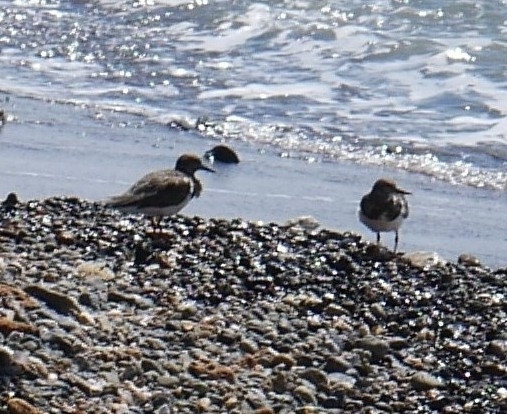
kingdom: Animalia
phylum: Chordata
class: Aves
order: Charadriiformes
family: Scolopacidae
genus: Arenaria
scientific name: Arenaria interpres
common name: Ruddy turnstone
